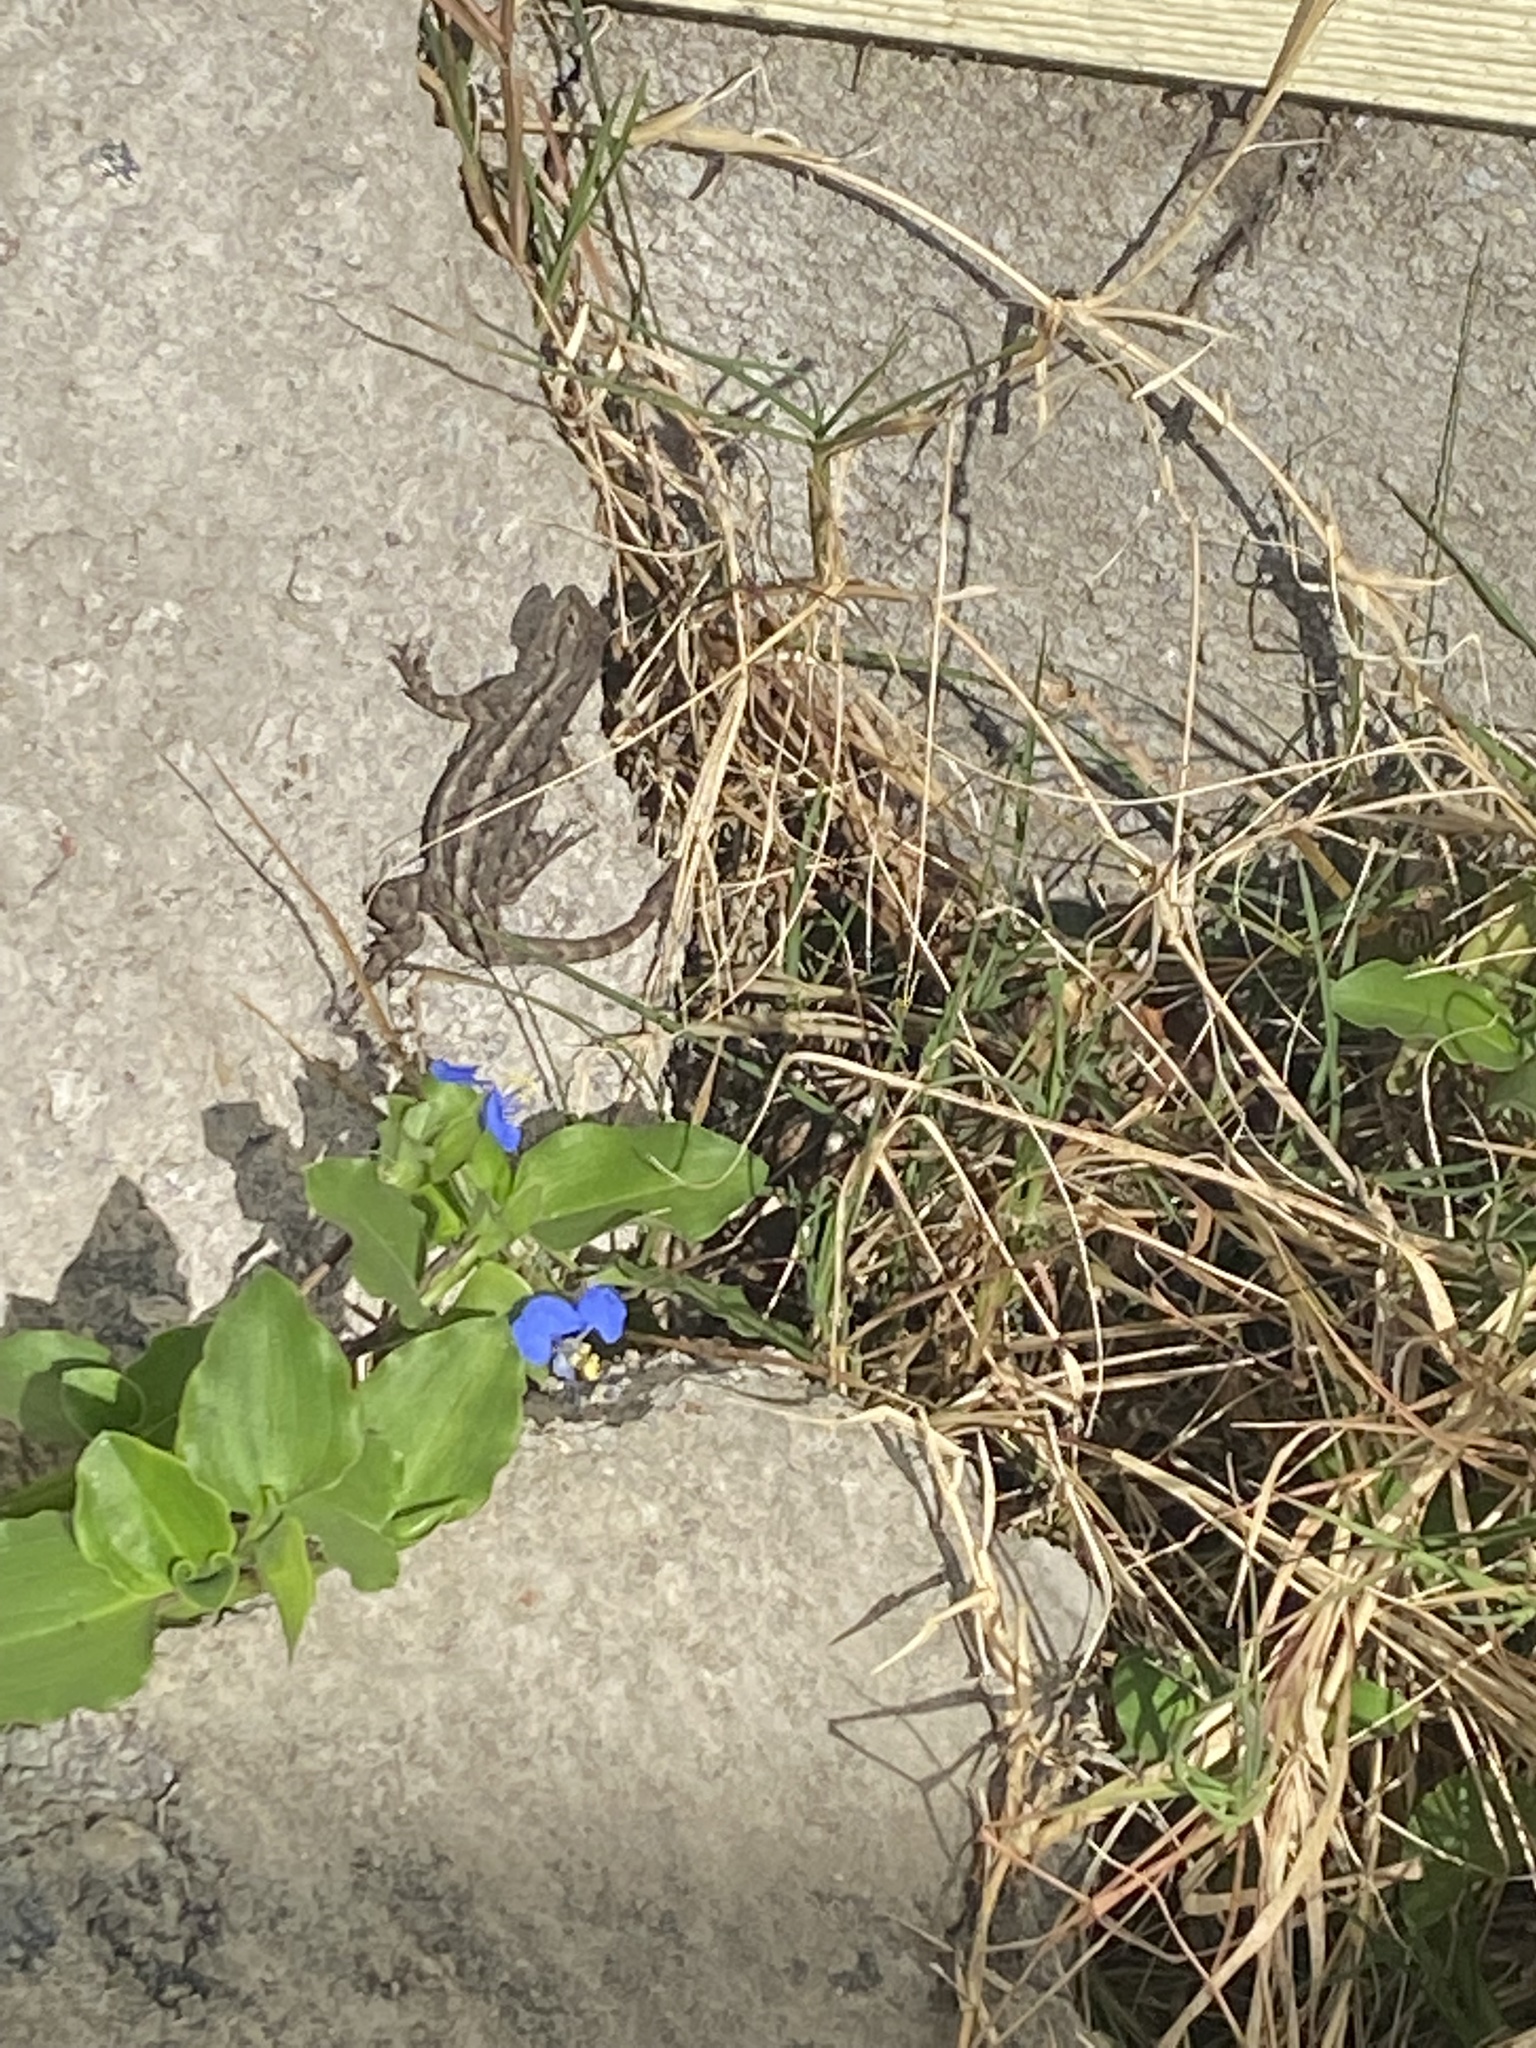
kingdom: Animalia
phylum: Chordata
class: Squamata
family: Phrynosomatidae
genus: Sceloporus
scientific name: Sceloporus occidentalis
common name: Western fence lizard
